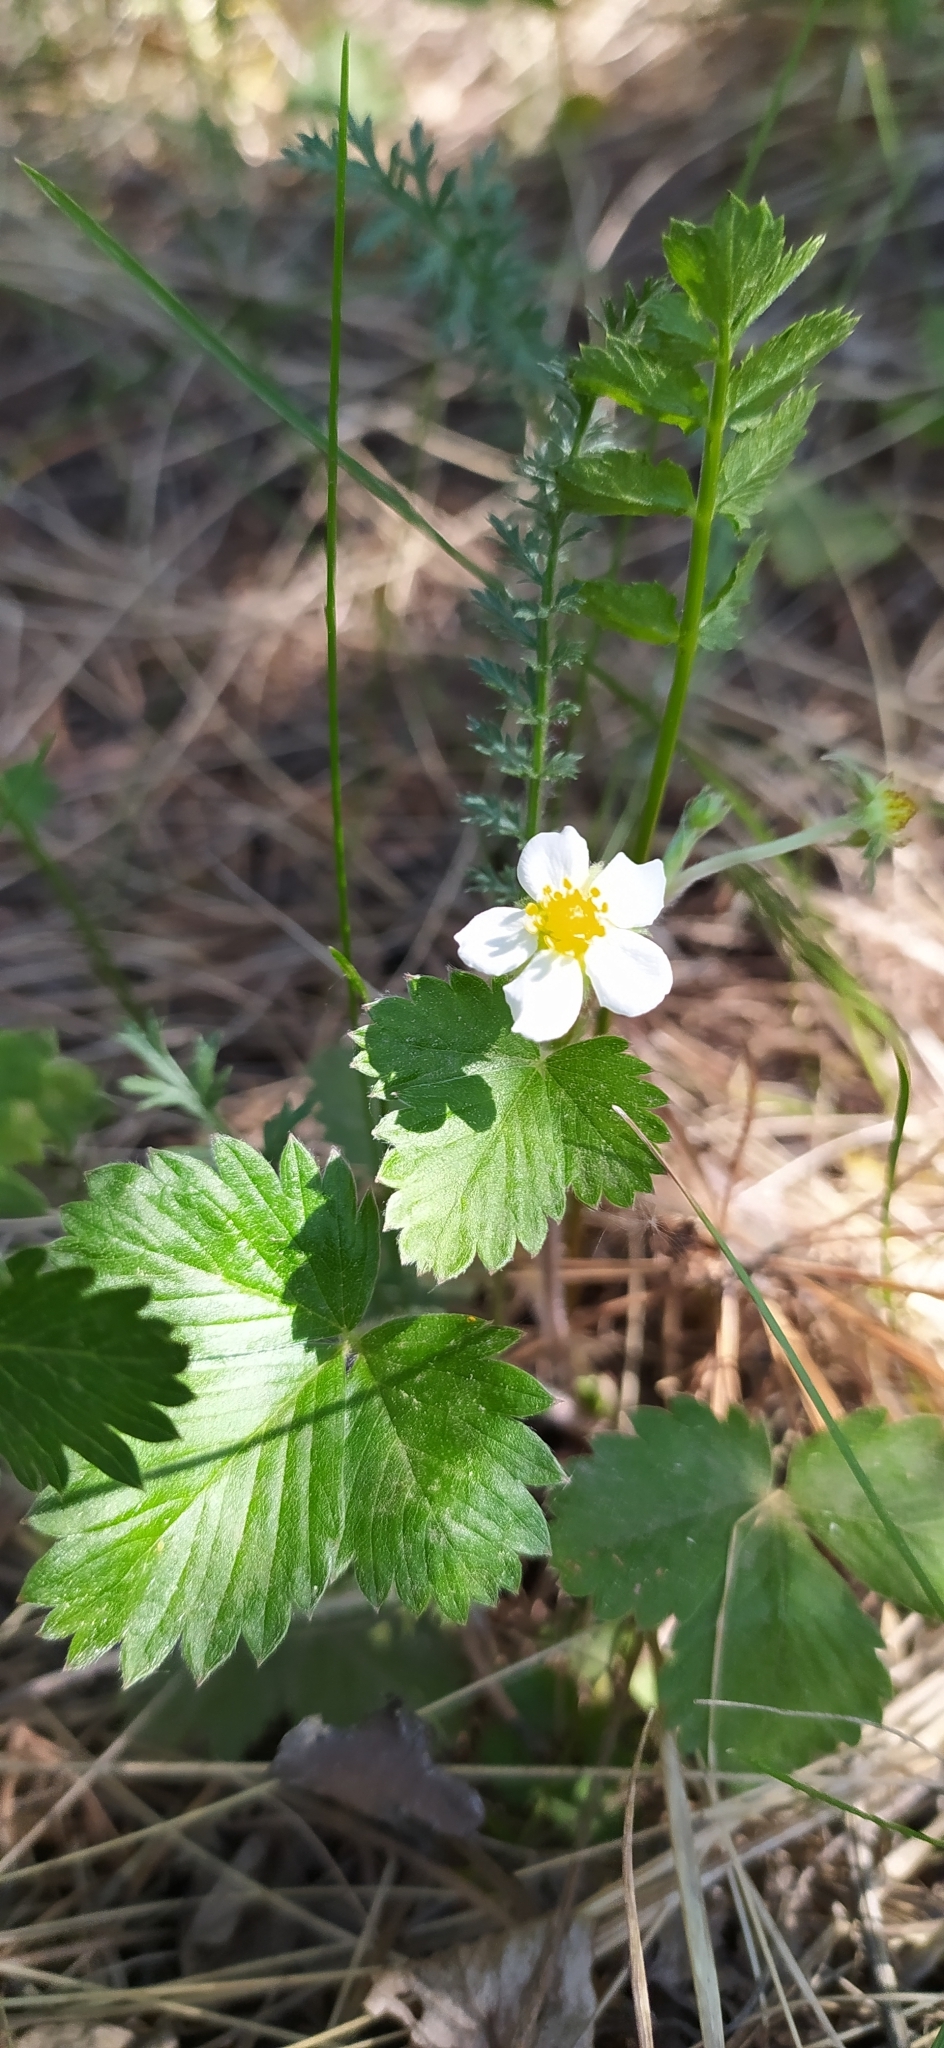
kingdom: Plantae
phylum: Tracheophyta
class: Magnoliopsida
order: Rosales
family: Rosaceae
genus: Fragaria
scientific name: Fragaria vesca
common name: Wild strawberry
